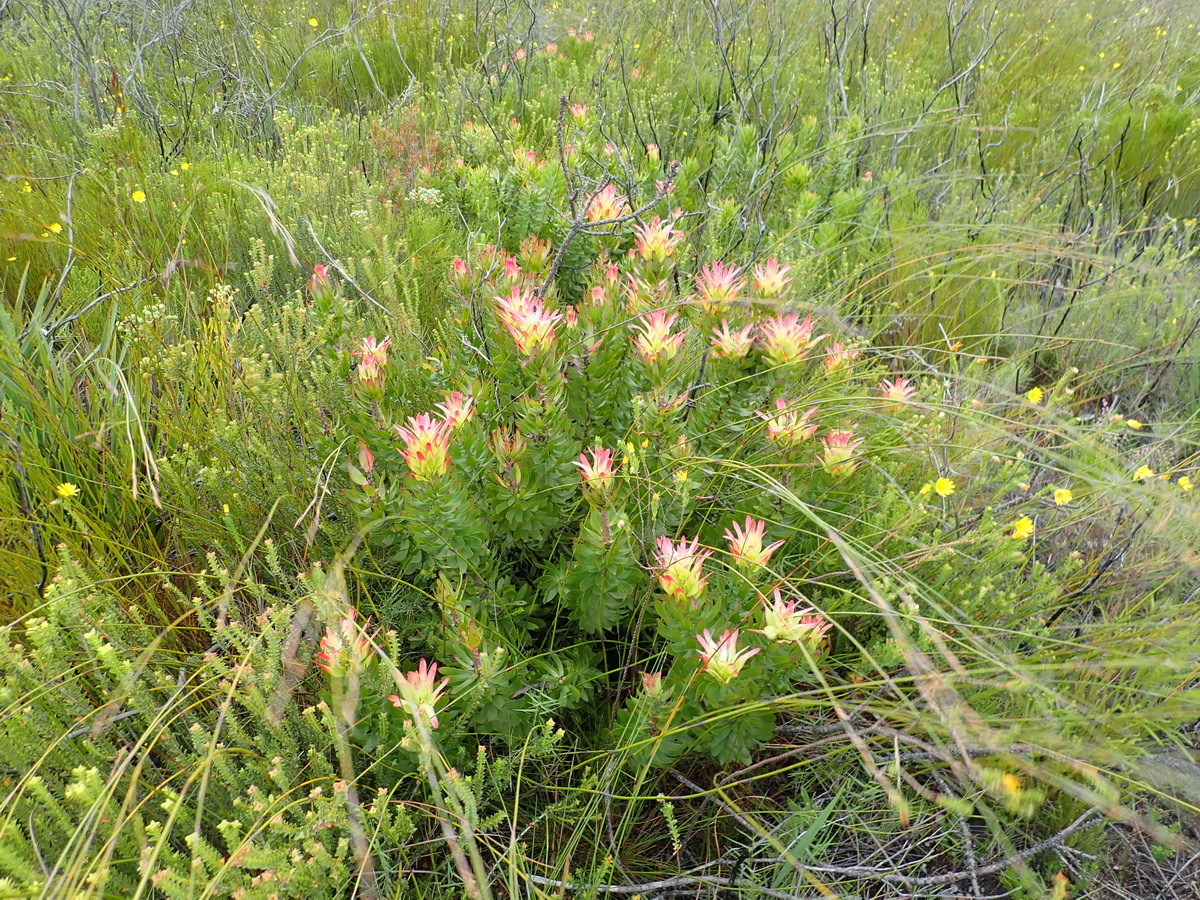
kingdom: Plantae
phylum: Tracheophyta
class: Magnoliopsida
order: Proteales
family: Proteaceae
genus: Mimetes
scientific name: Mimetes cucullatus
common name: Common pagoda
